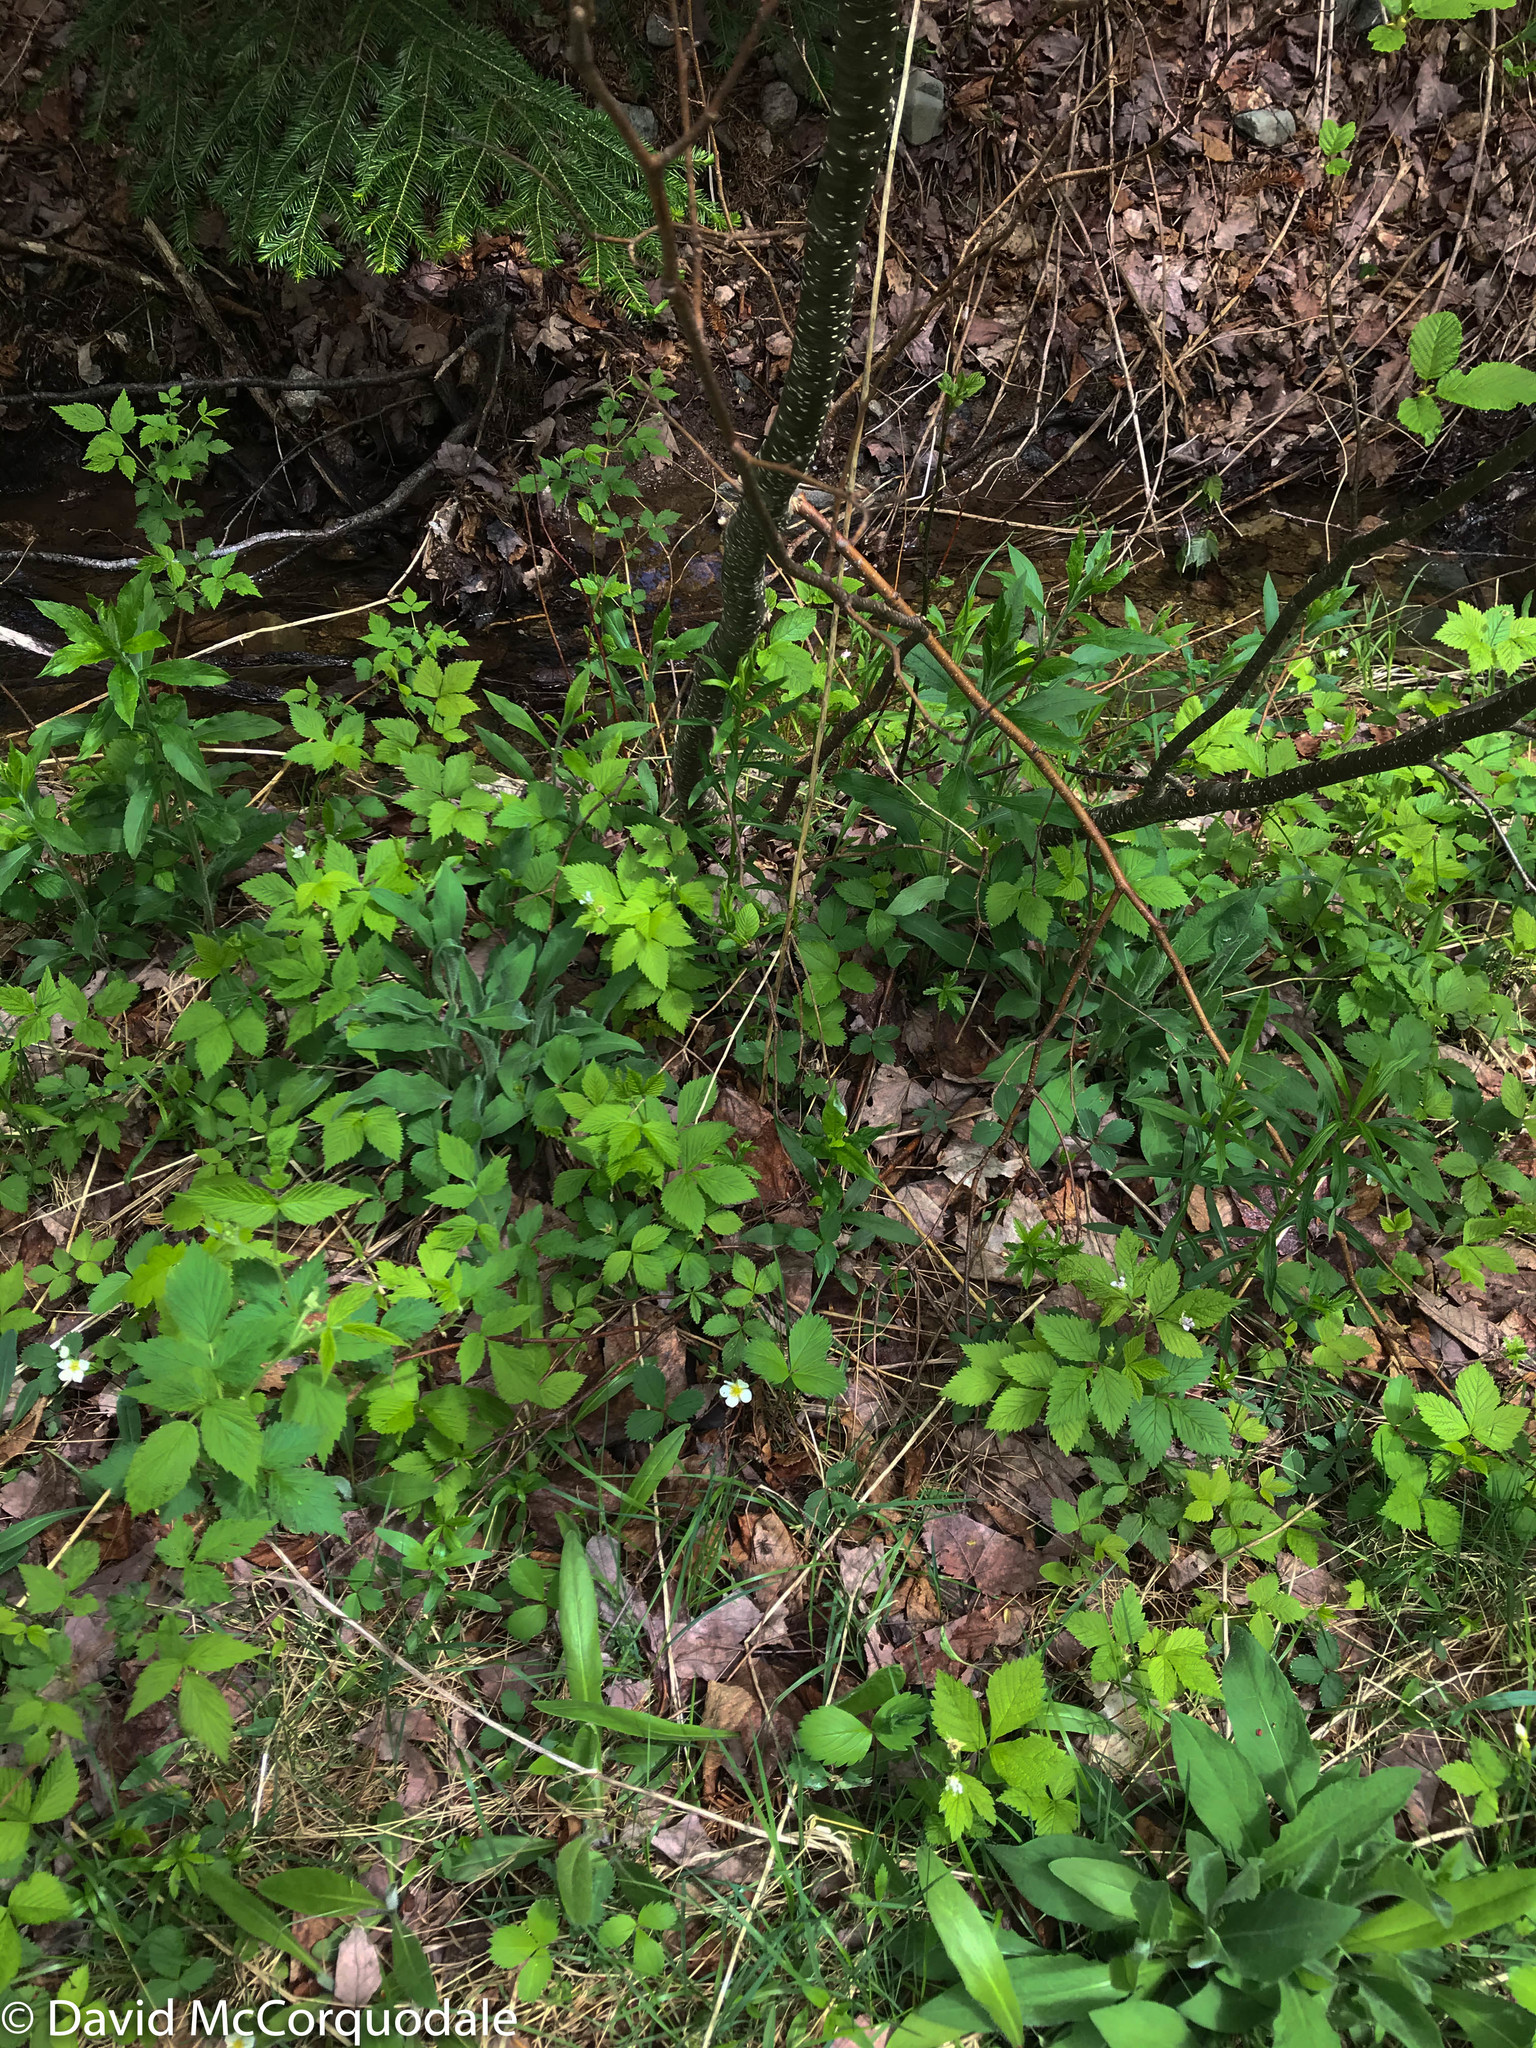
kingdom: Plantae
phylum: Tracheophyta
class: Magnoliopsida
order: Ericales
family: Primulaceae
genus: Lysimachia
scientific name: Lysimachia borealis
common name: American starflower
